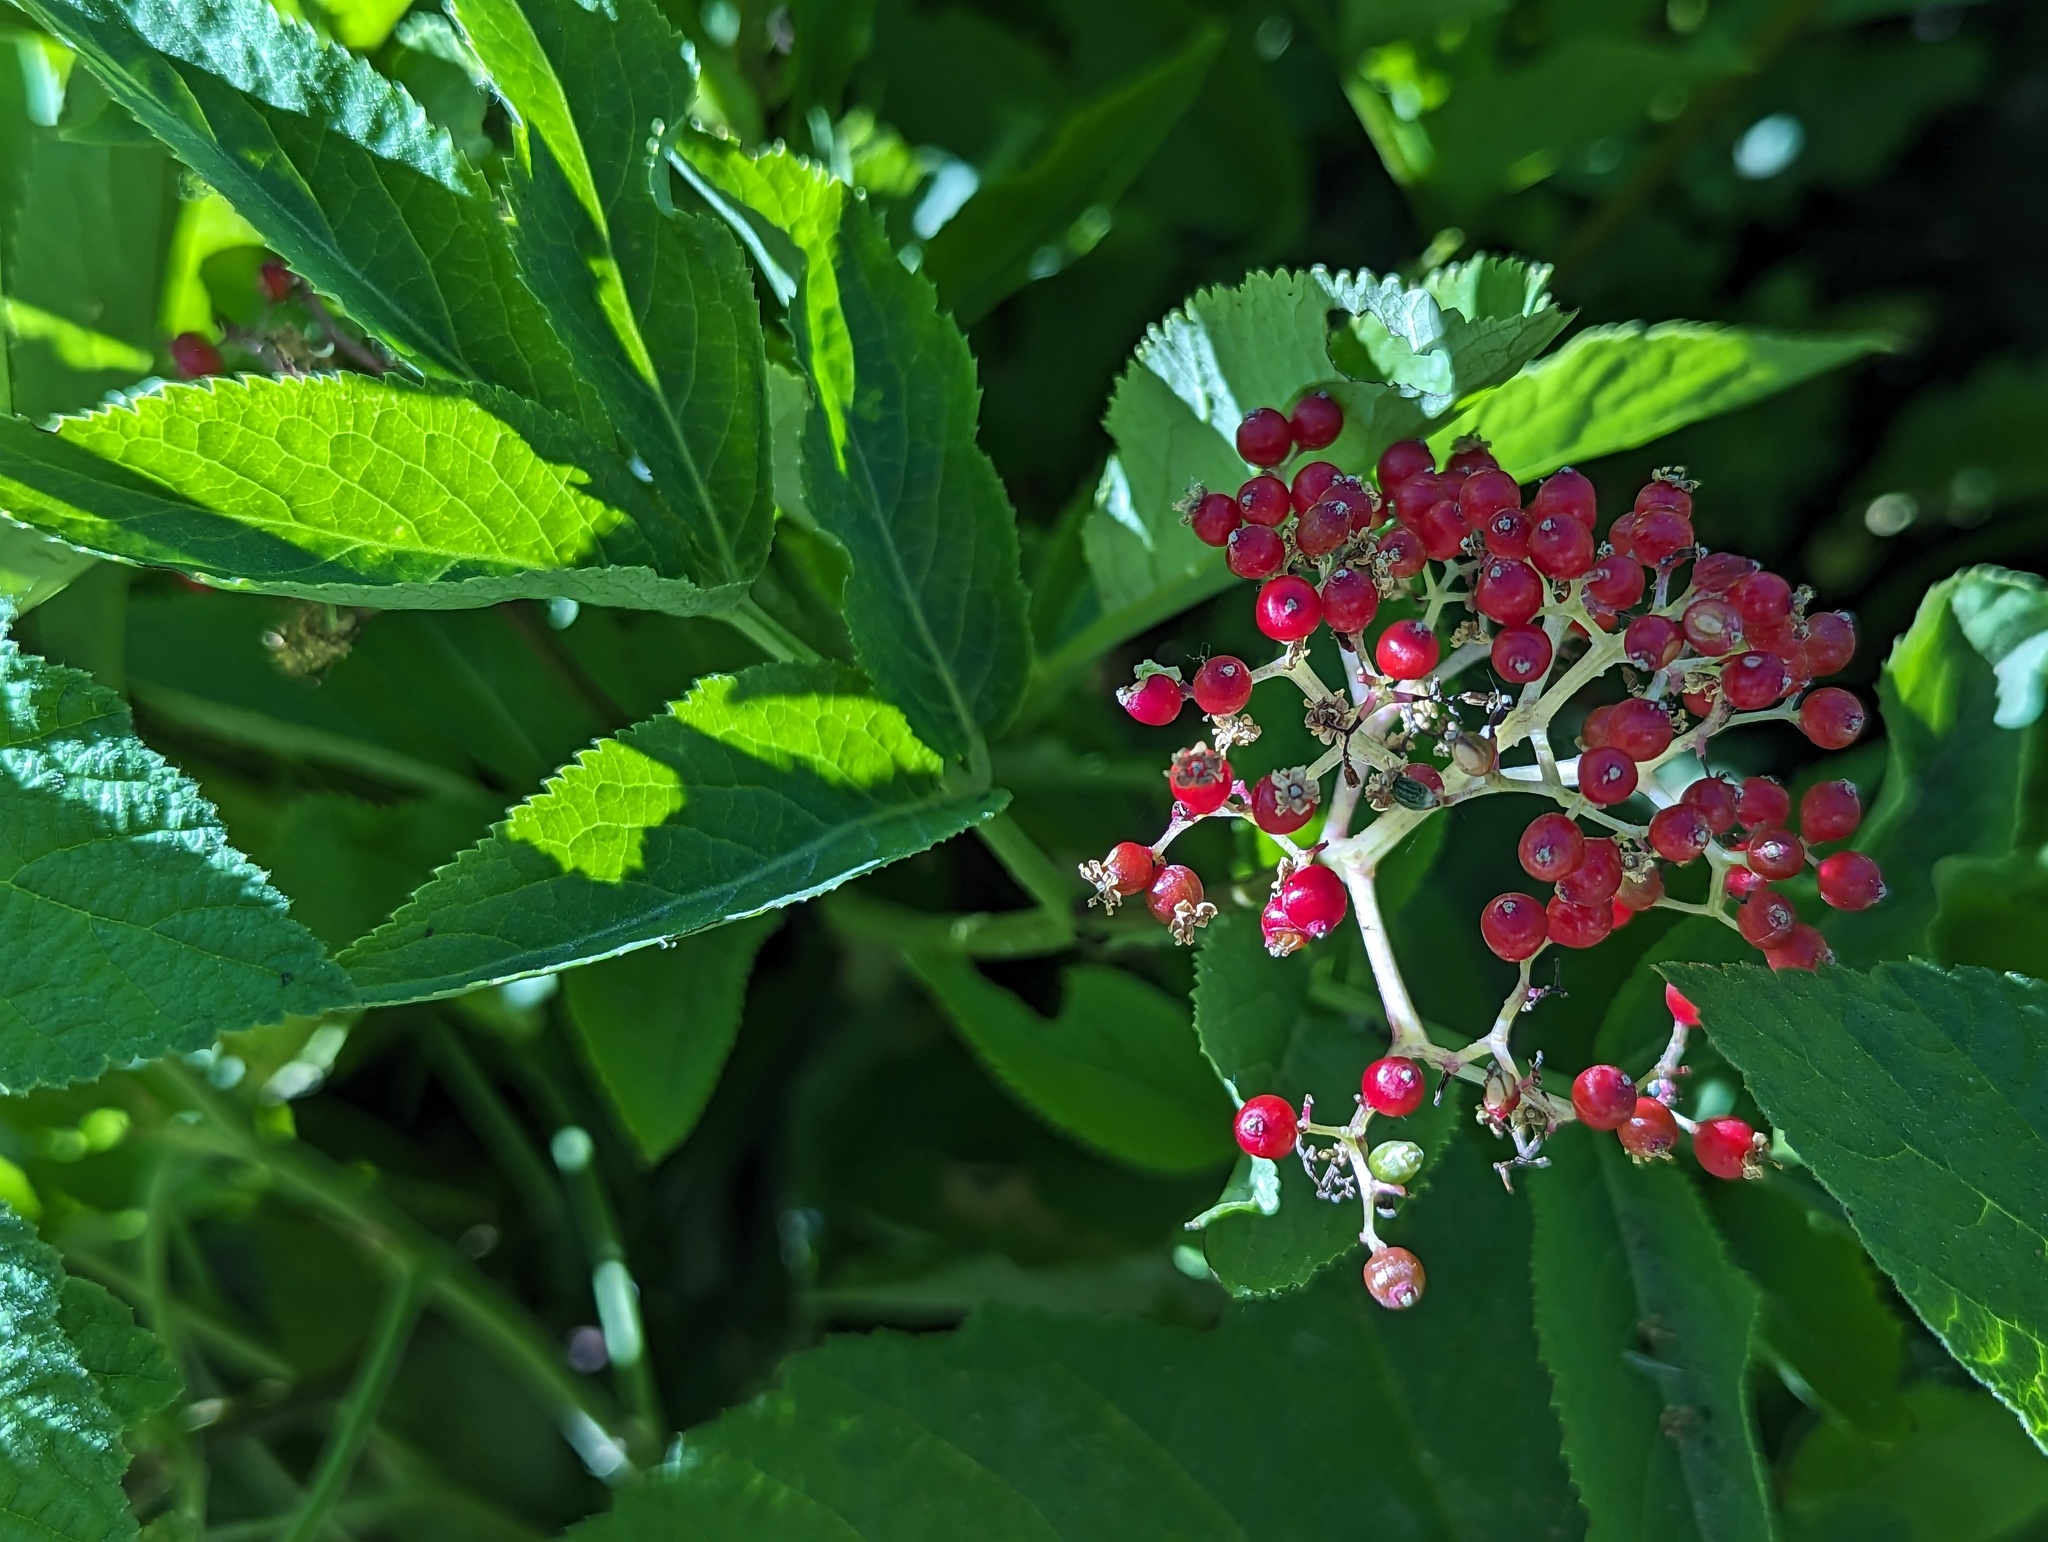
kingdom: Plantae
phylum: Tracheophyta
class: Magnoliopsida
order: Dipsacales
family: Viburnaceae
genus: Sambucus
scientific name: Sambucus racemosa
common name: Red-berried elder
